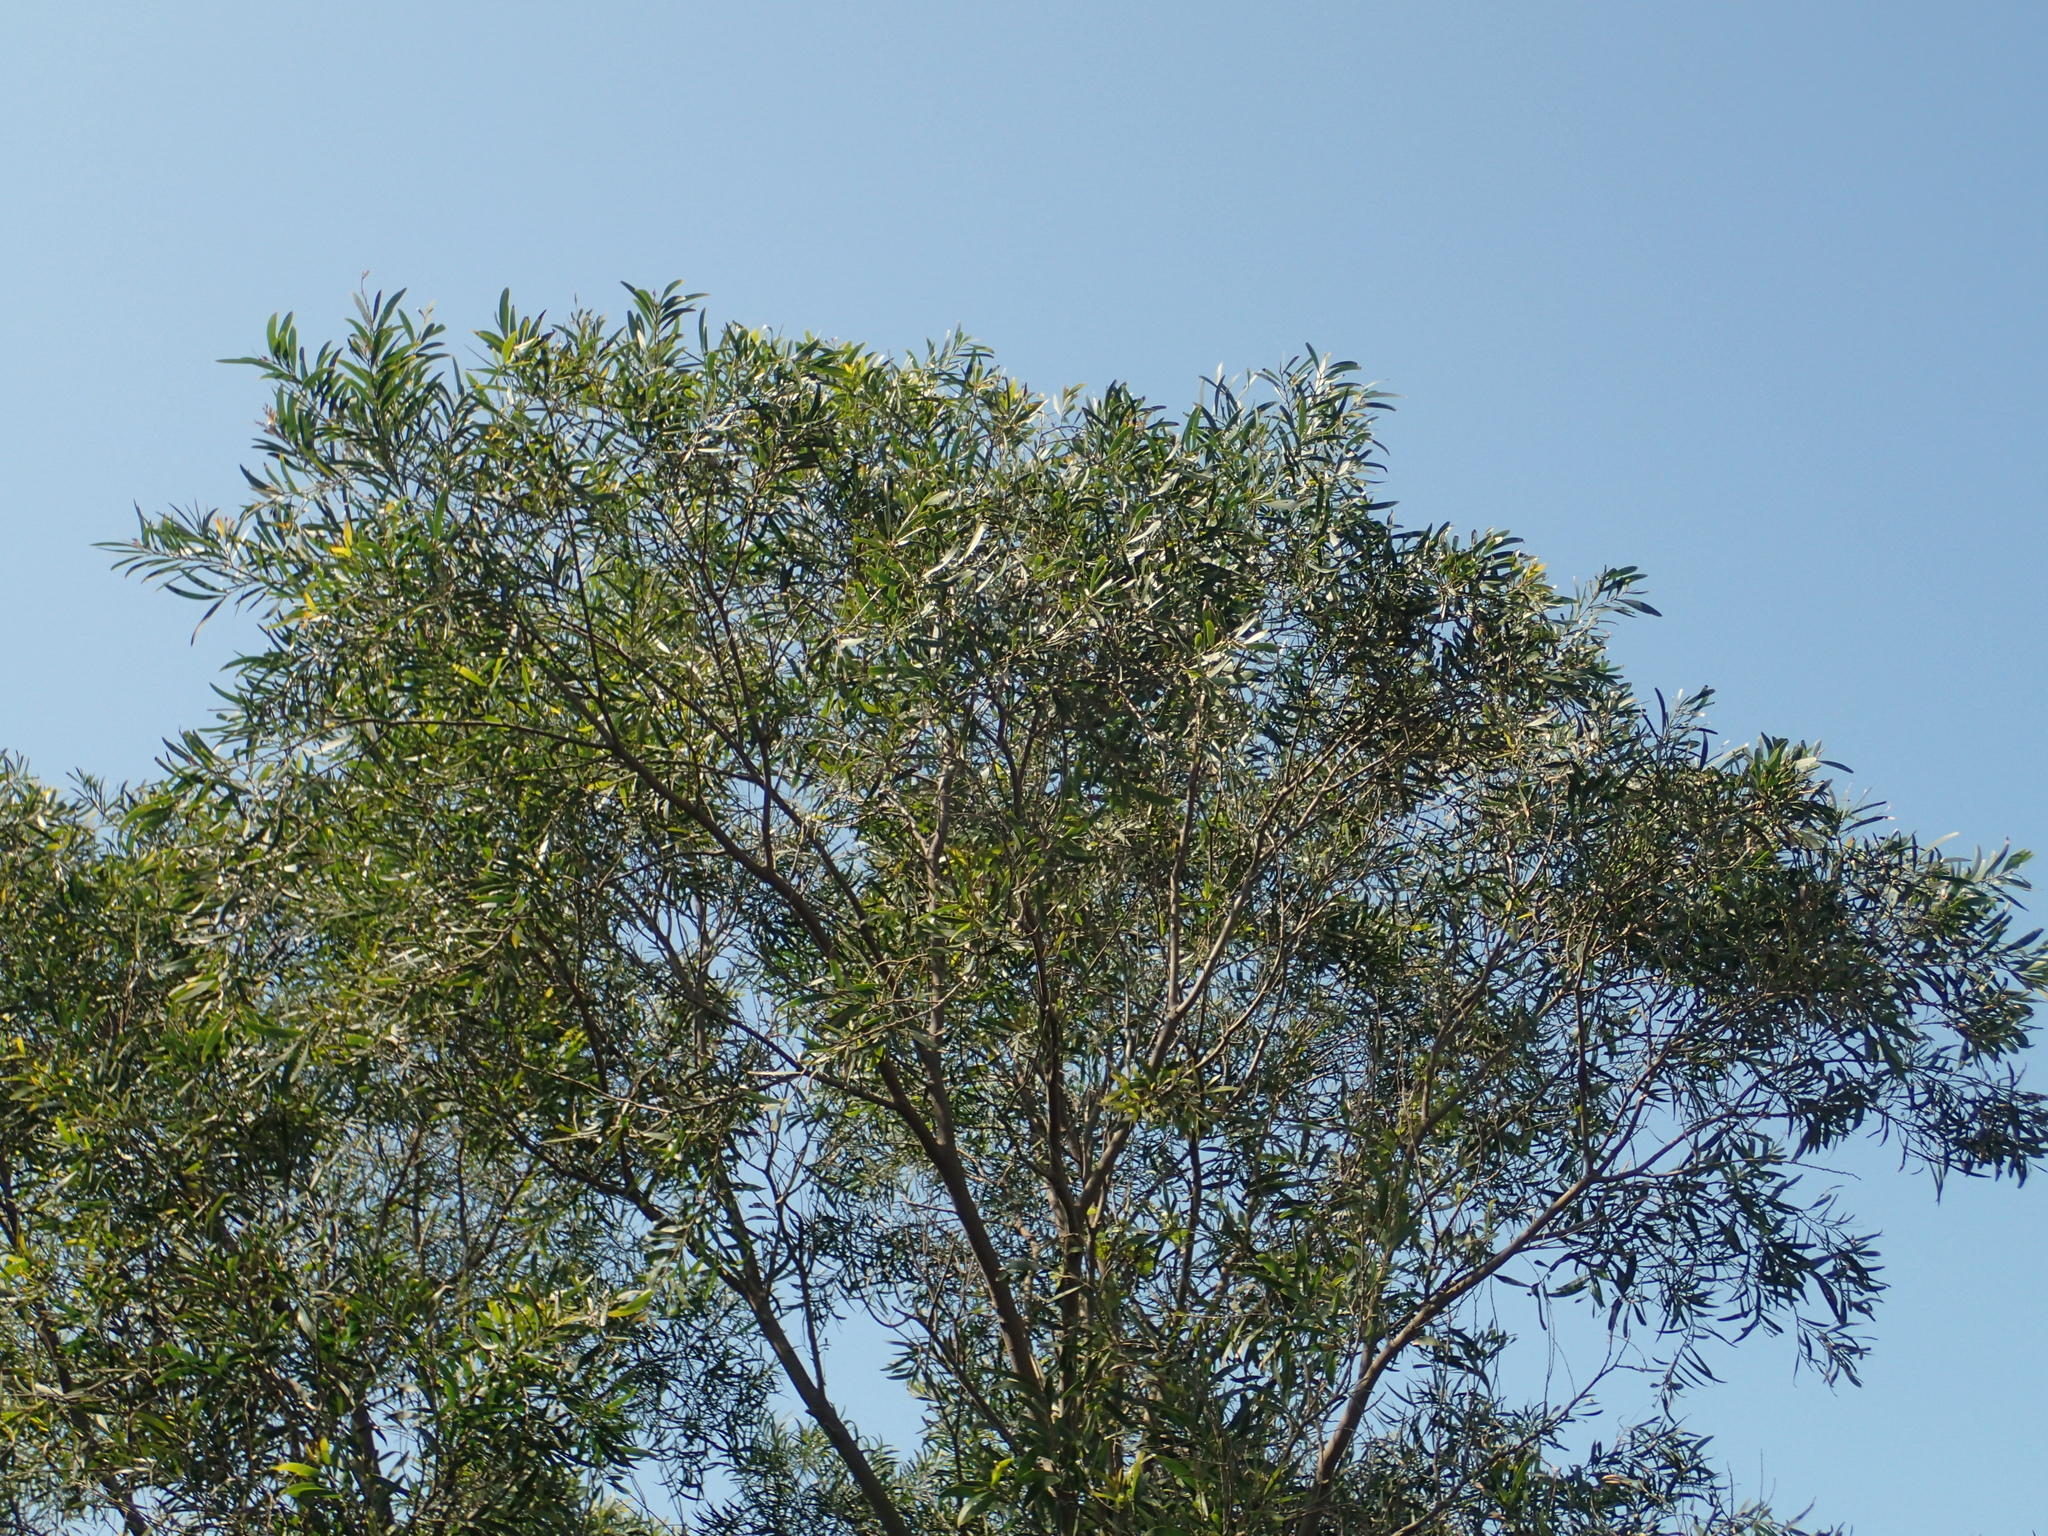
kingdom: Plantae
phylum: Tracheophyta
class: Magnoliopsida
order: Fabales
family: Fabaceae
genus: Acacia
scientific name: Acacia confusa
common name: Formosan koa
